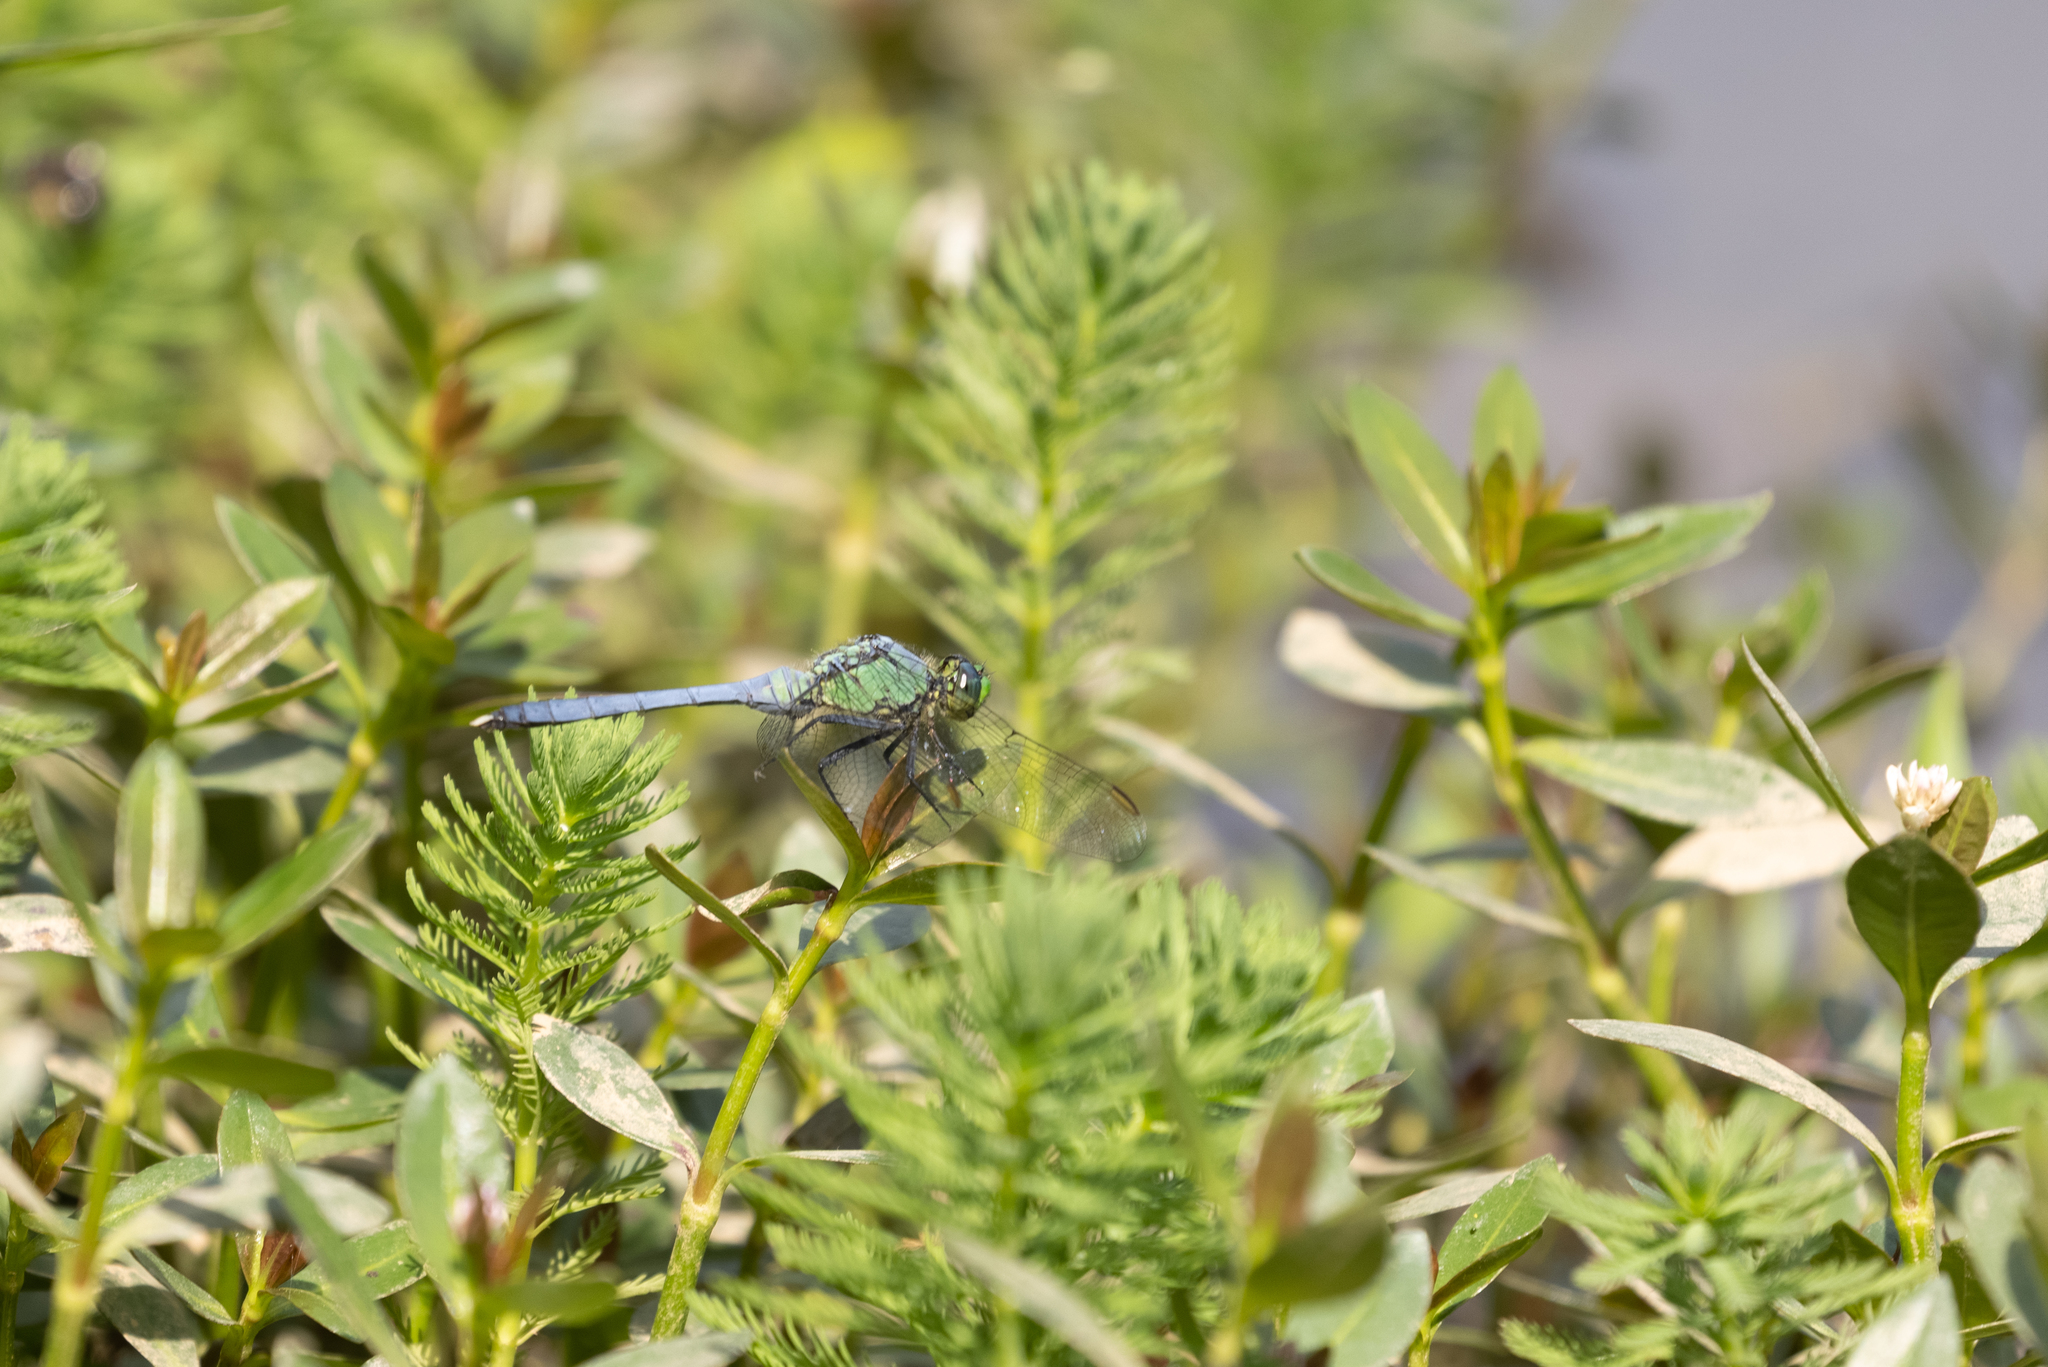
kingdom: Animalia
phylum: Arthropoda
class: Insecta
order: Odonata
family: Libellulidae
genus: Erythemis
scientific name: Erythemis simplicicollis
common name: Eastern pondhawk
